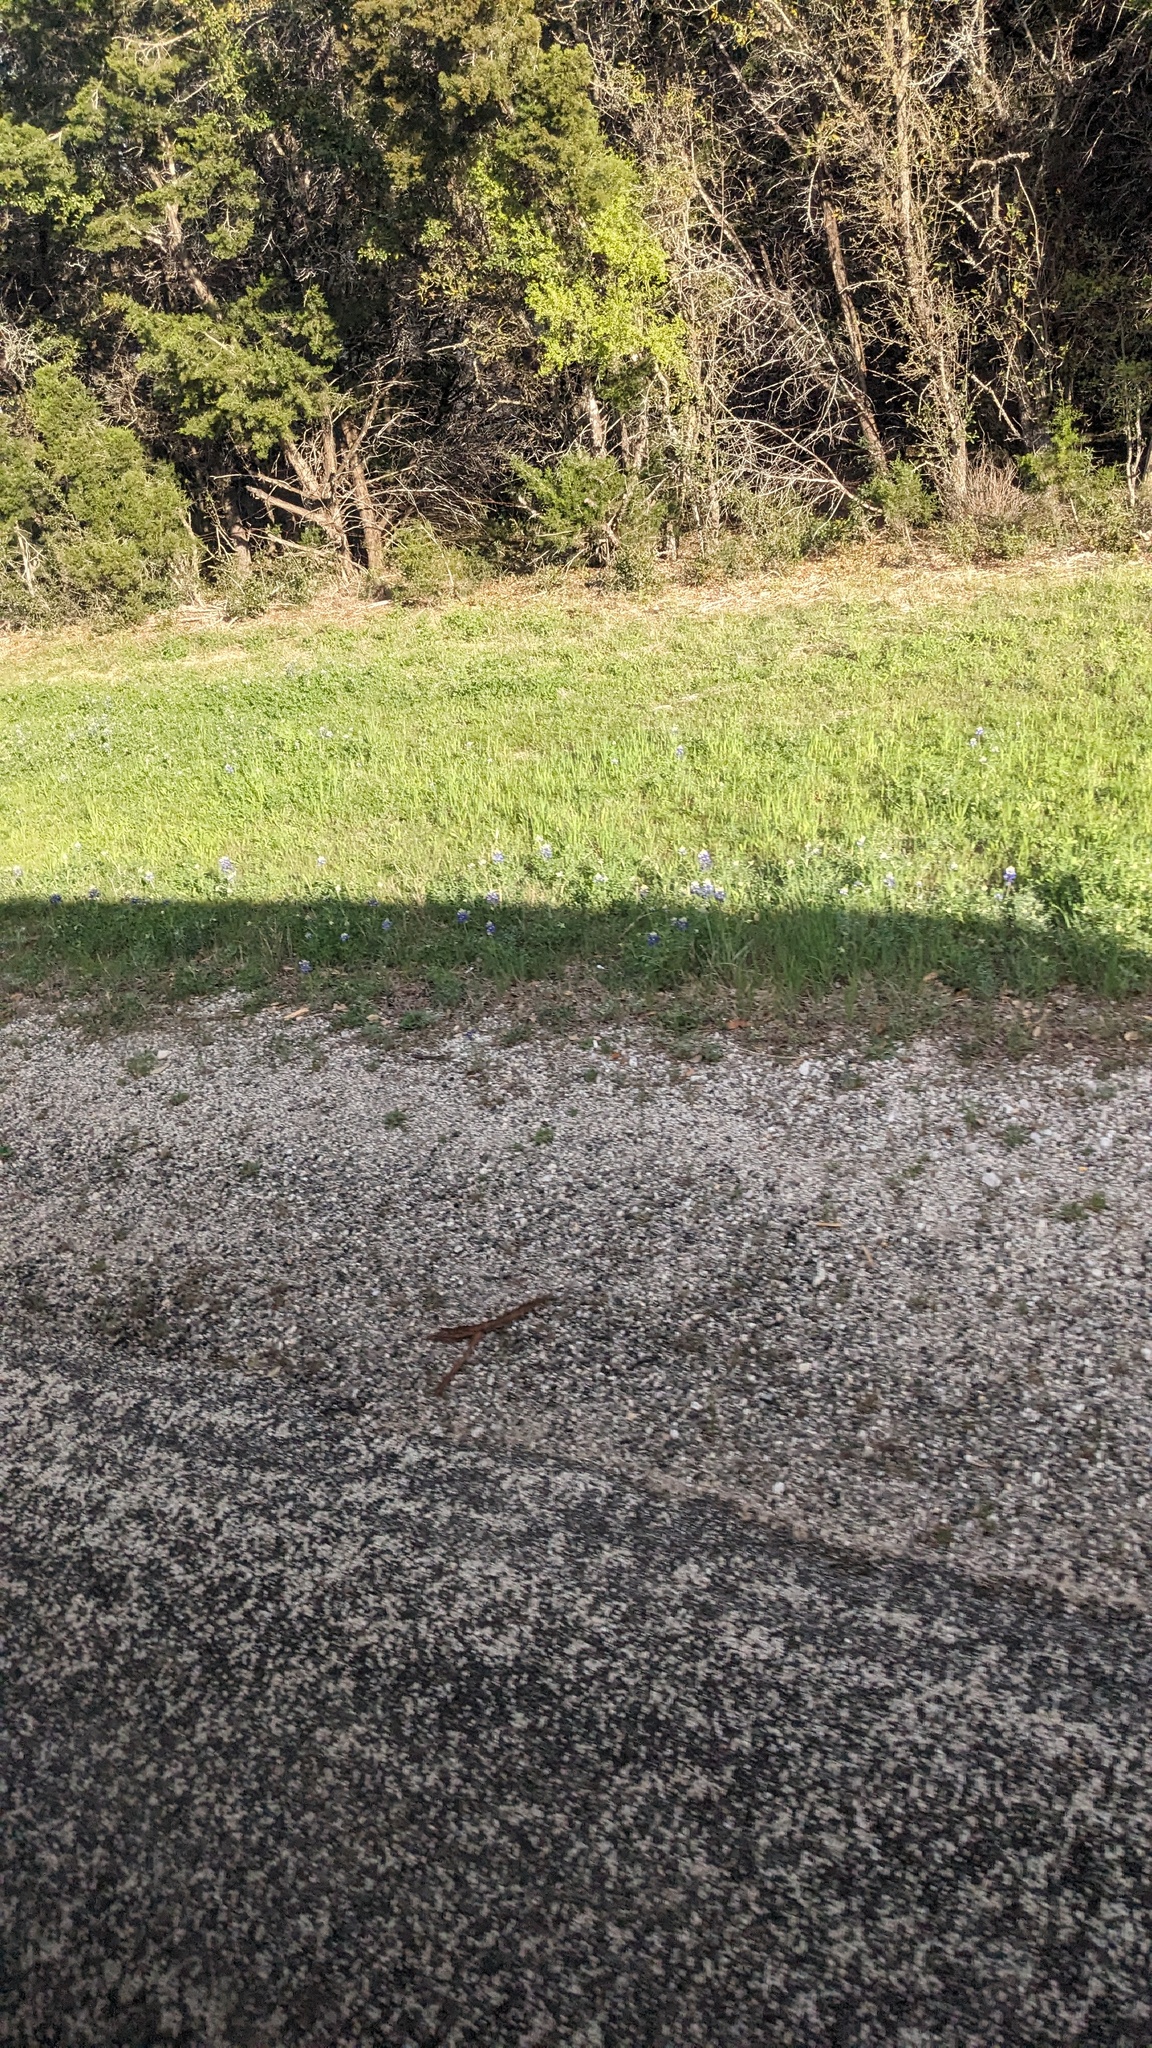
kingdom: Plantae
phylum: Tracheophyta
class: Magnoliopsida
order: Fabales
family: Fabaceae
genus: Lupinus
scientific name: Lupinus texensis
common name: Texas bluebonnet
